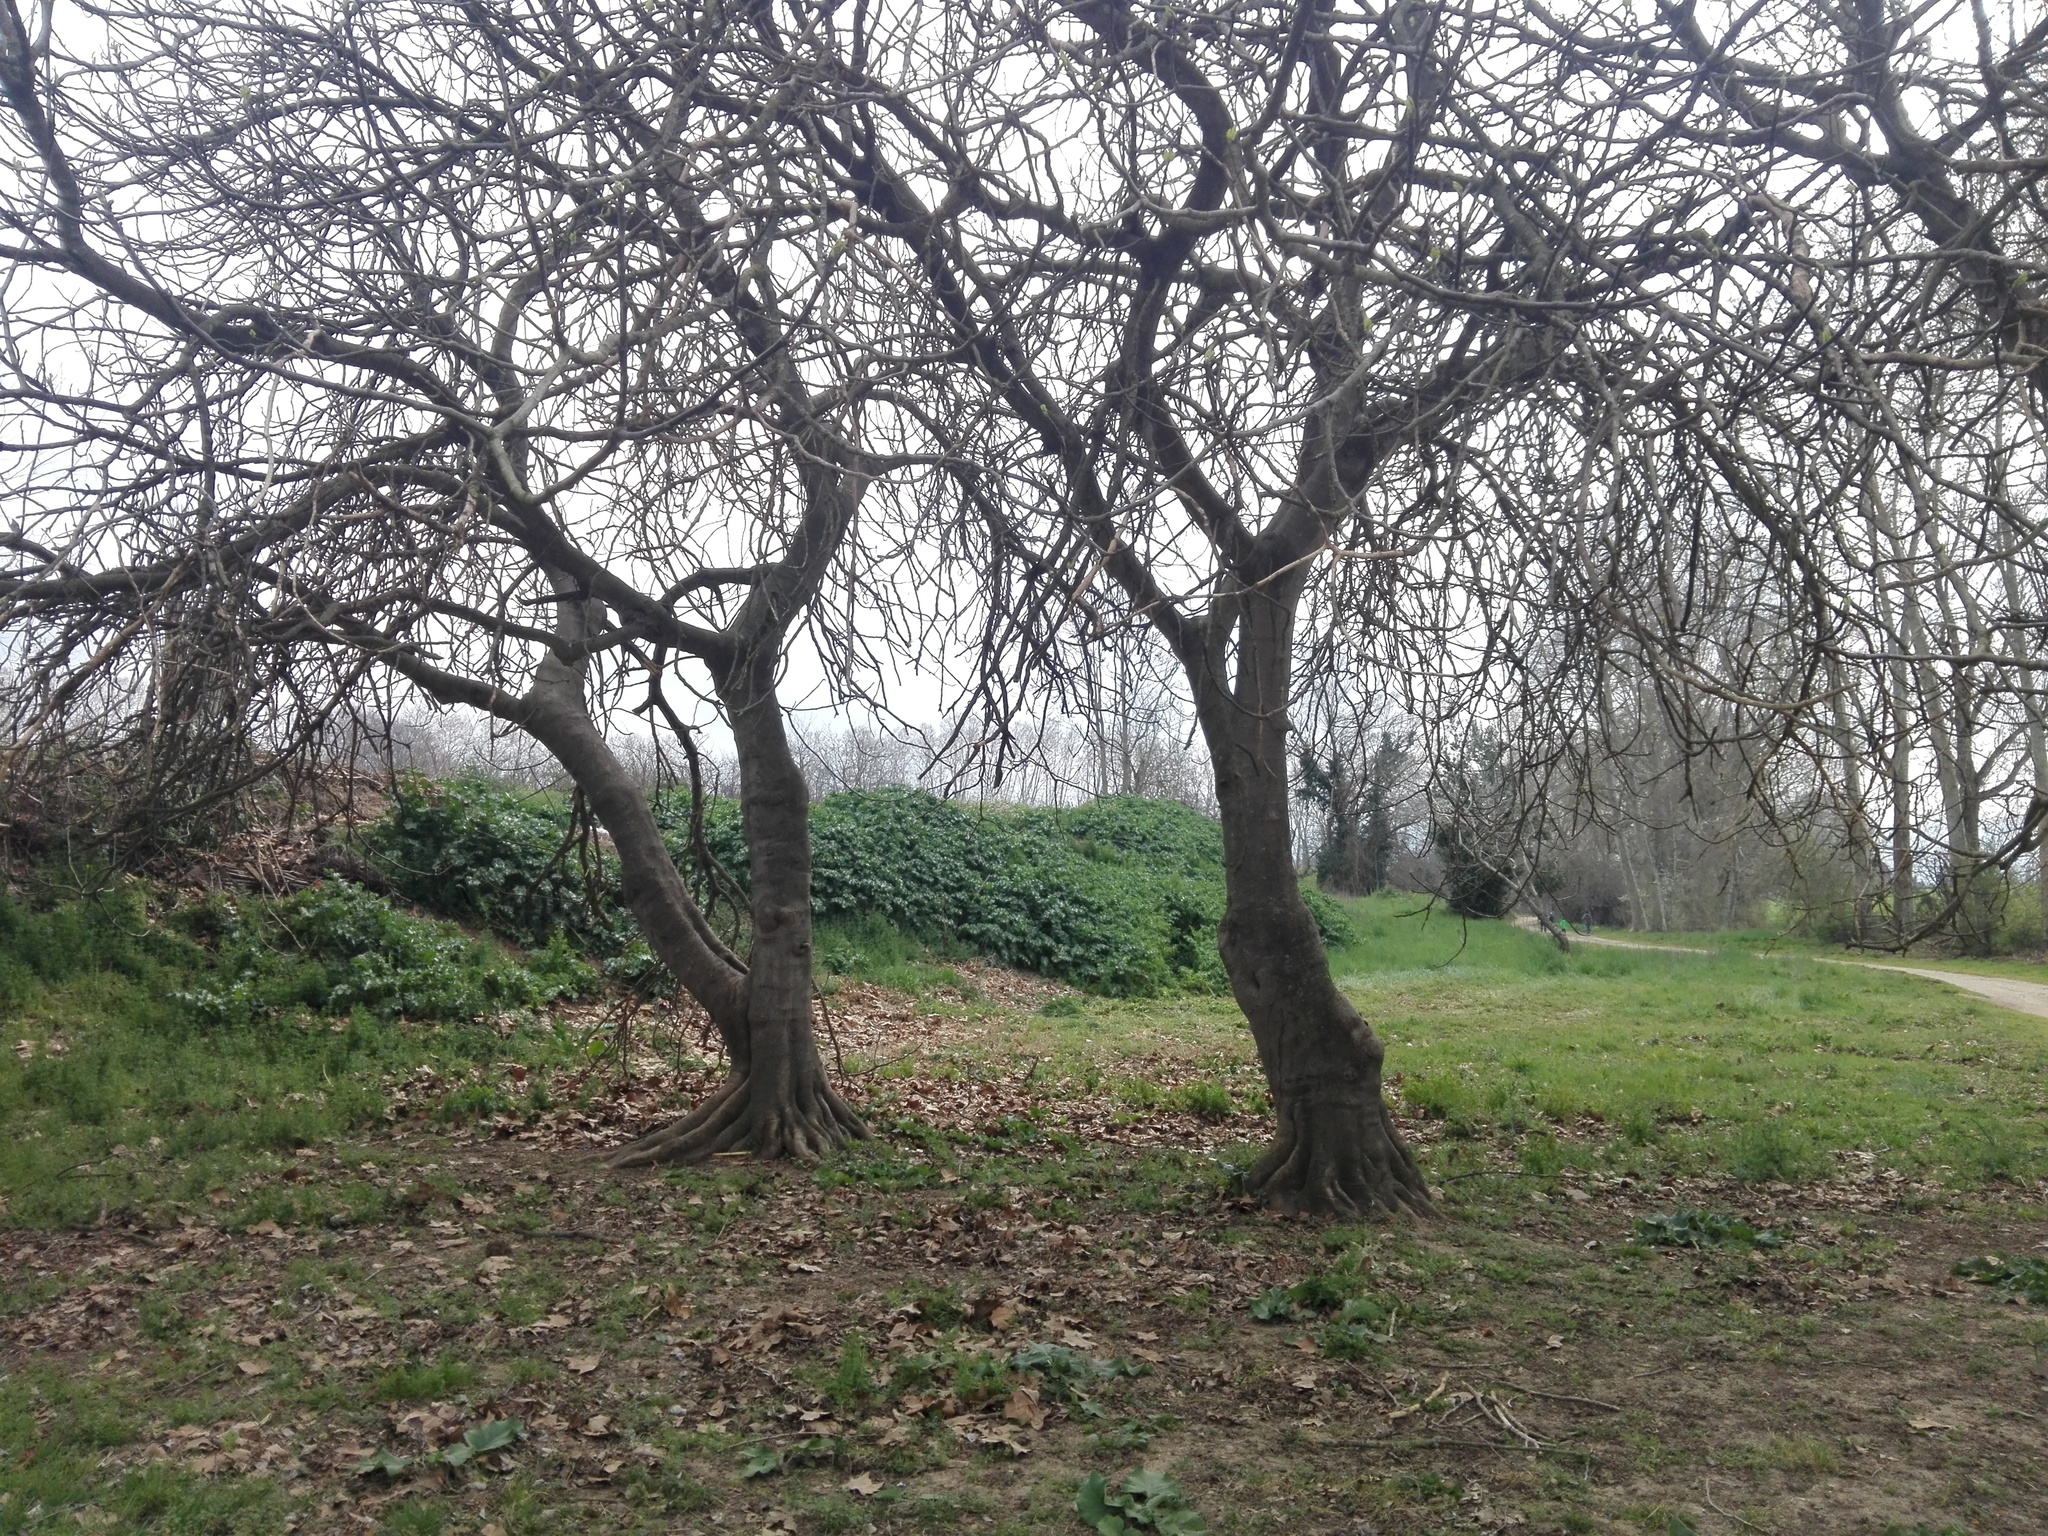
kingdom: Plantae
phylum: Tracheophyta
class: Magnoliopsida
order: Rosales
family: Moraceae
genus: Ficus
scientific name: Ficus carica
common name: Fig
